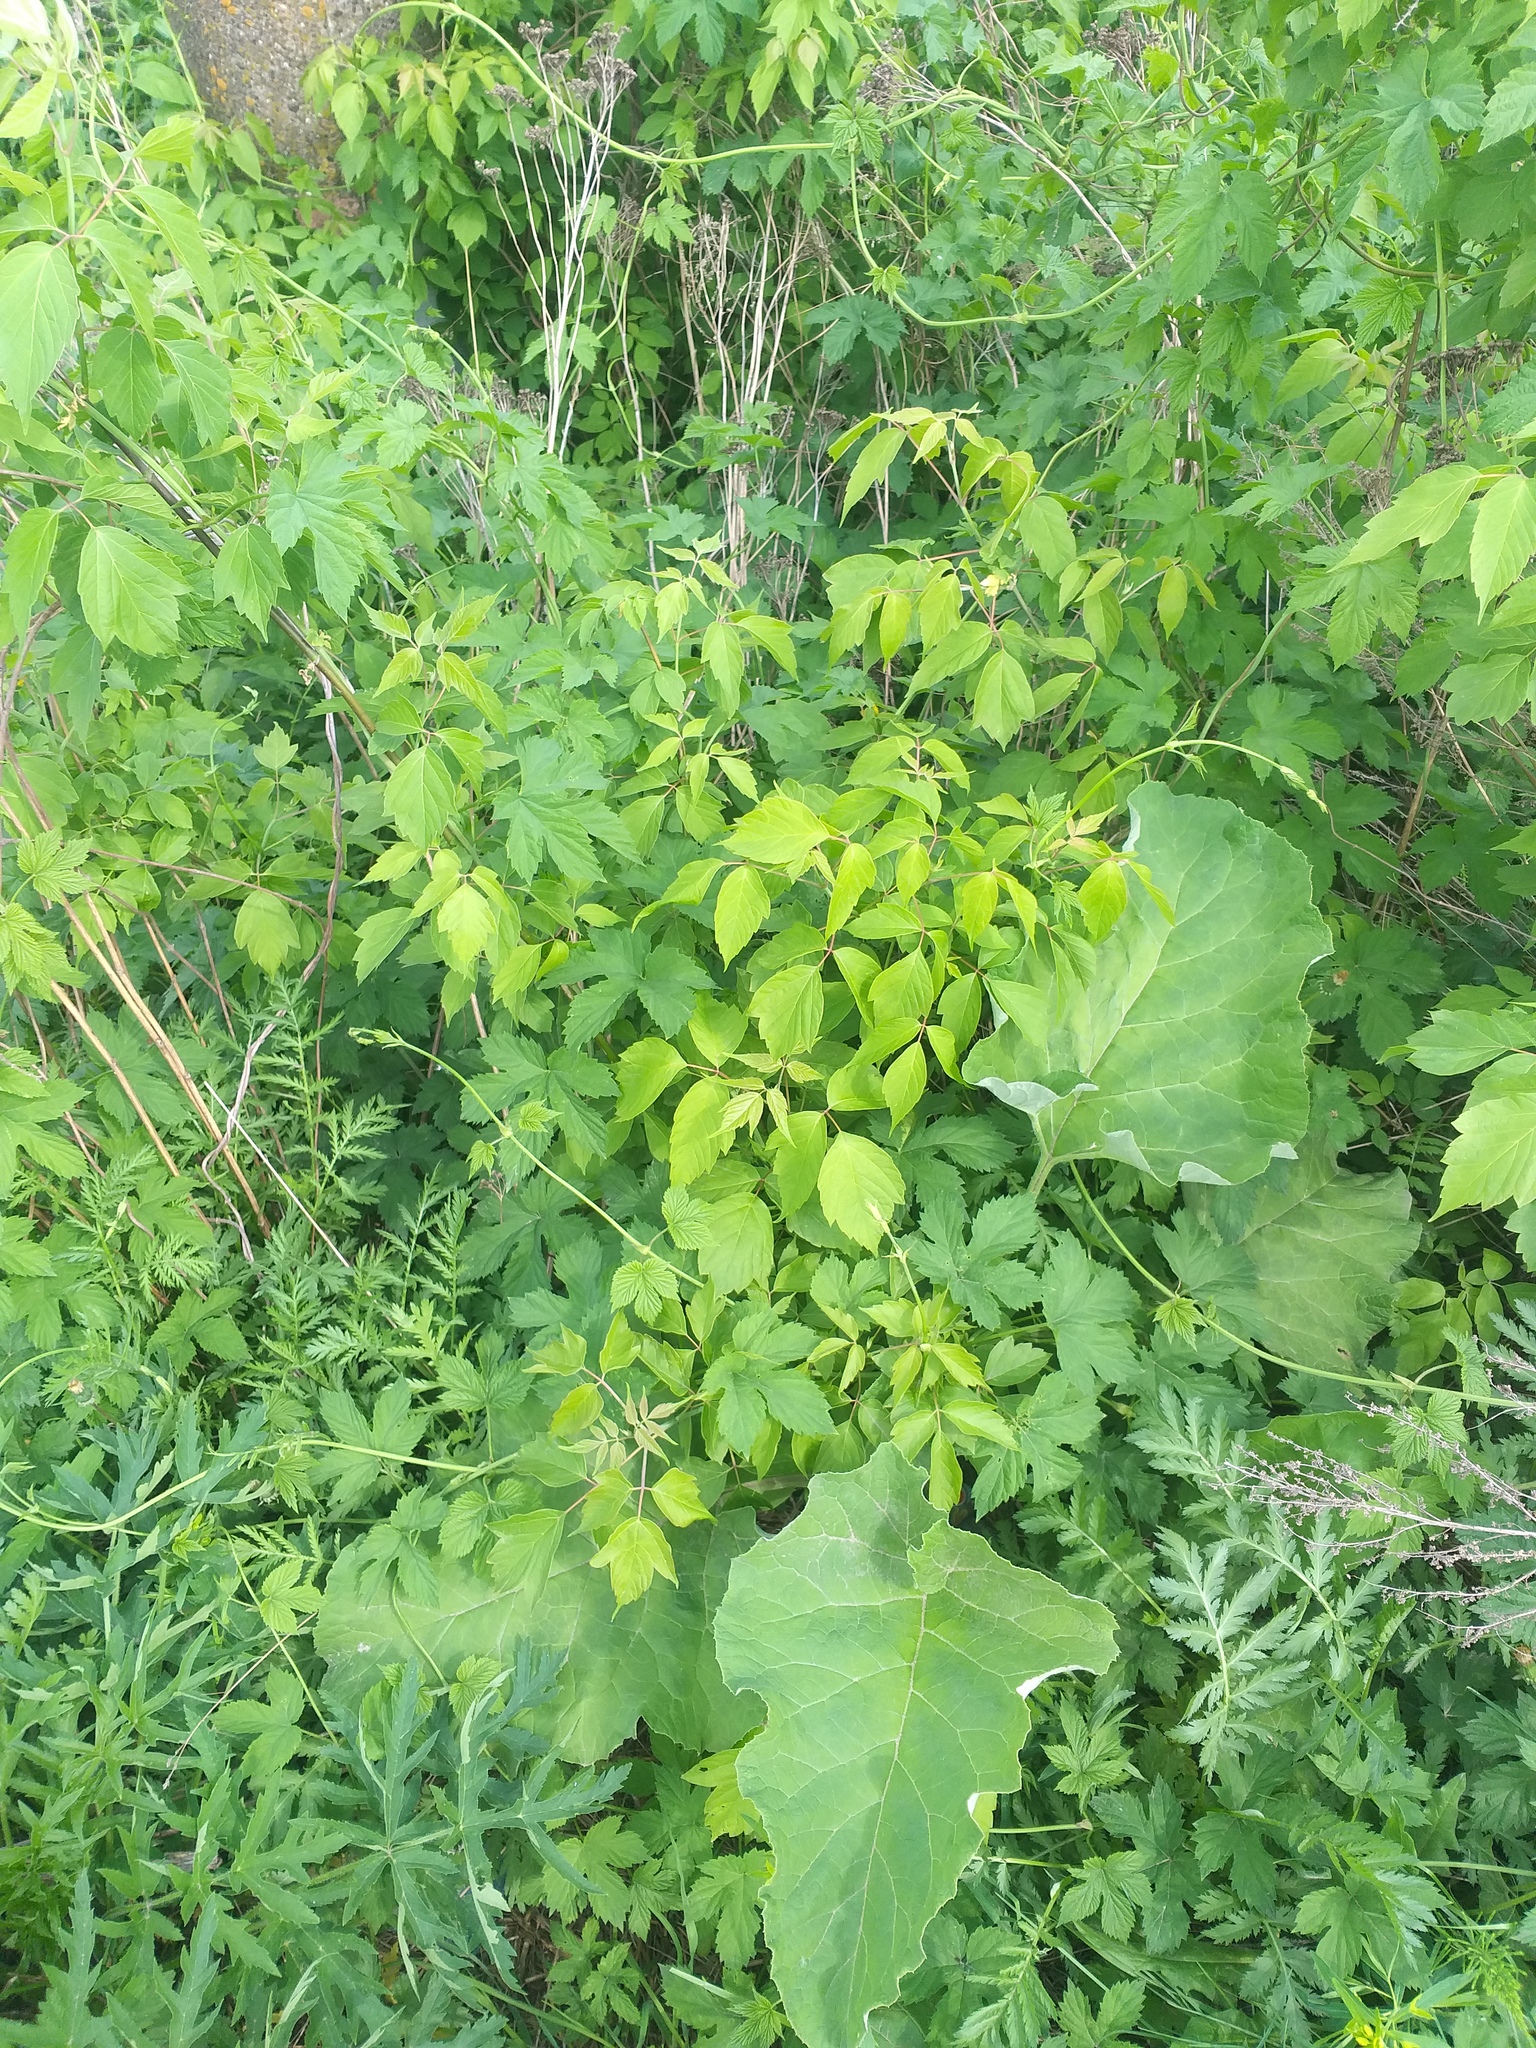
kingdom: Plantae
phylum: Tracheophyta
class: Magnoliopsida
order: Sapindales
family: Sapindaceae
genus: Acer
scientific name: Acer negundo
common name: Ashleaf maple
